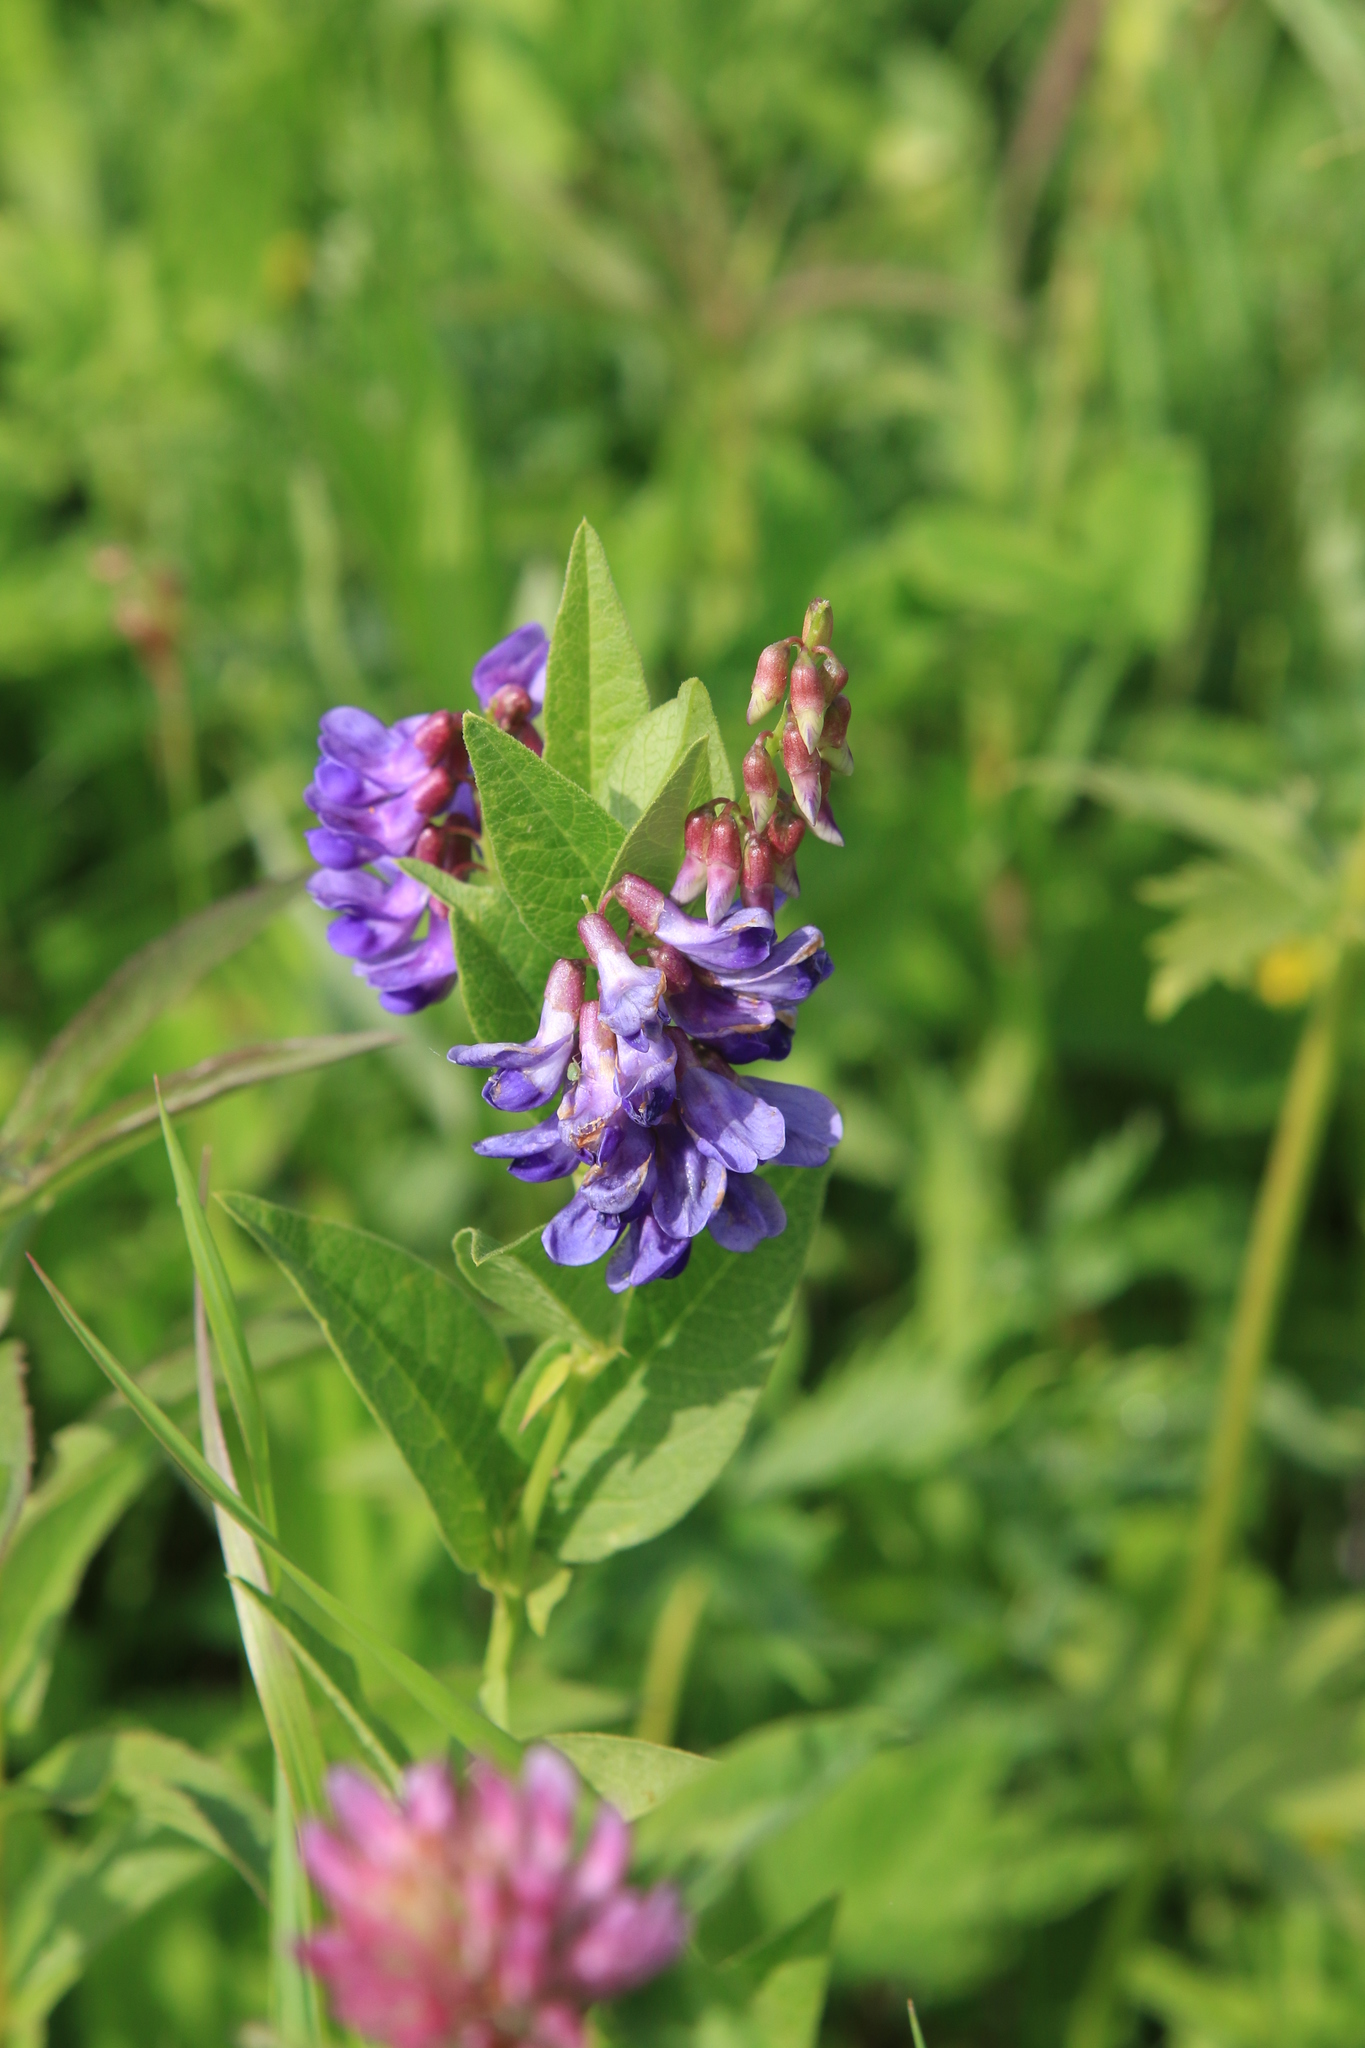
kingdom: Plantae
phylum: Tracheophyta
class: Magnoliopsida
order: Fabales
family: Fabaceae
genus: Vicia
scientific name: Vicia unijuga
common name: Two-leaf vetch
